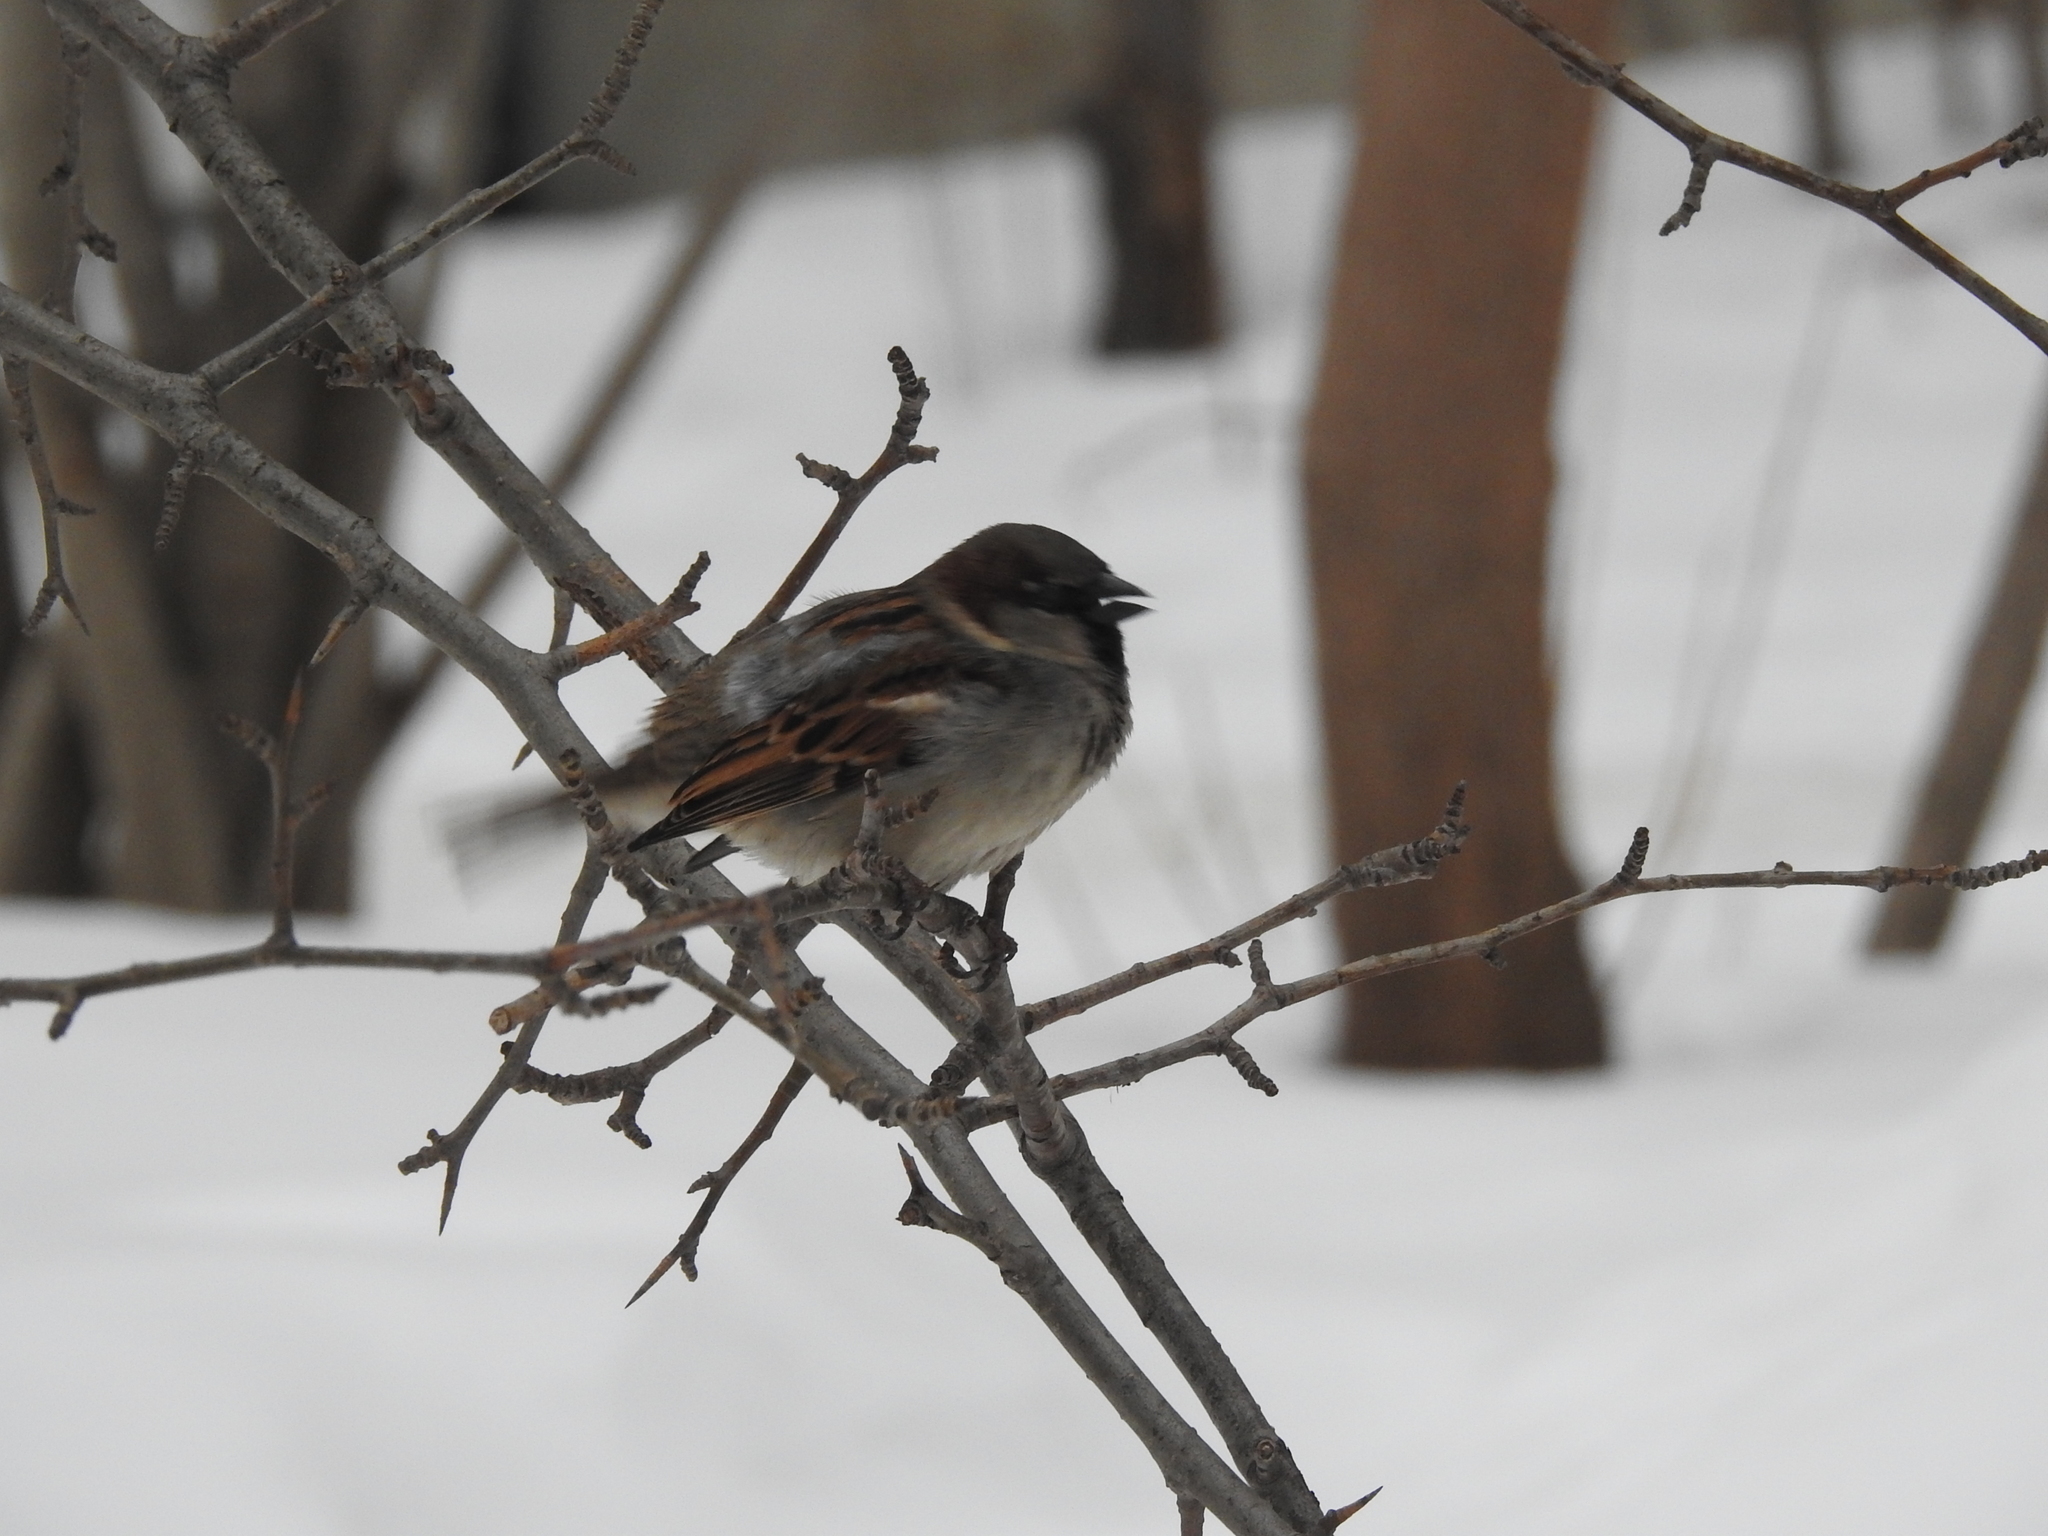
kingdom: Animalia
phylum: Chordata
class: Aves
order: Passeriformes
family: Passeridae
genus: Passer
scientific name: Passer domesticus
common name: House sparrow
